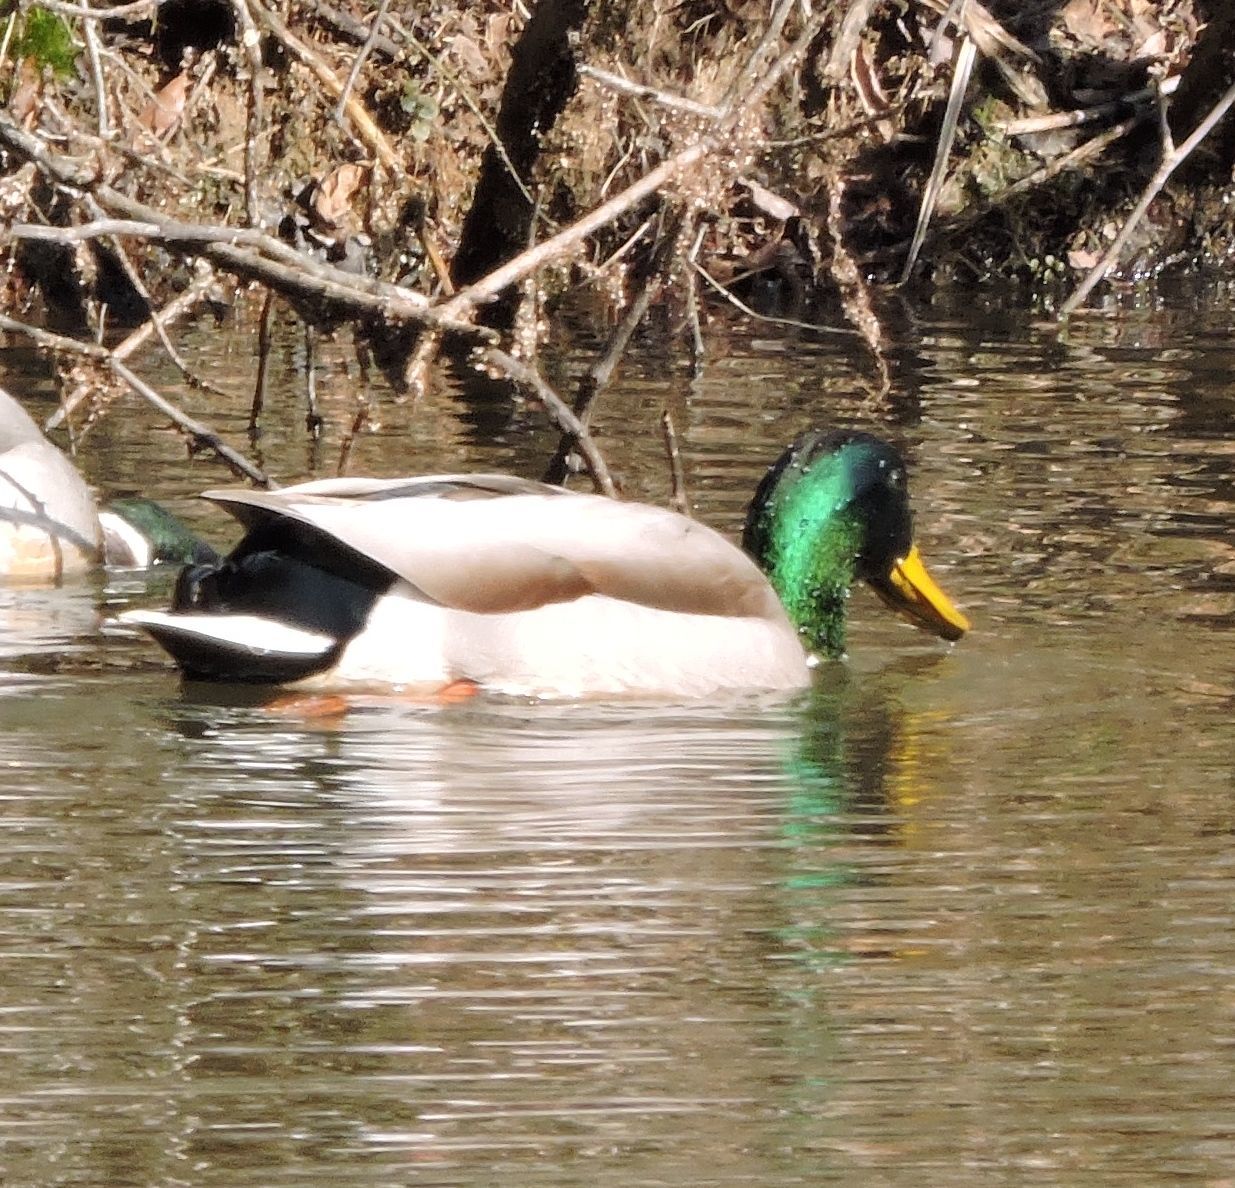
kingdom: Animalia
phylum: Chordata
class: Aves
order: Anseriformes
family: Anatidae
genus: Anas
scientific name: Anas platyrhynchos
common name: Mallard
